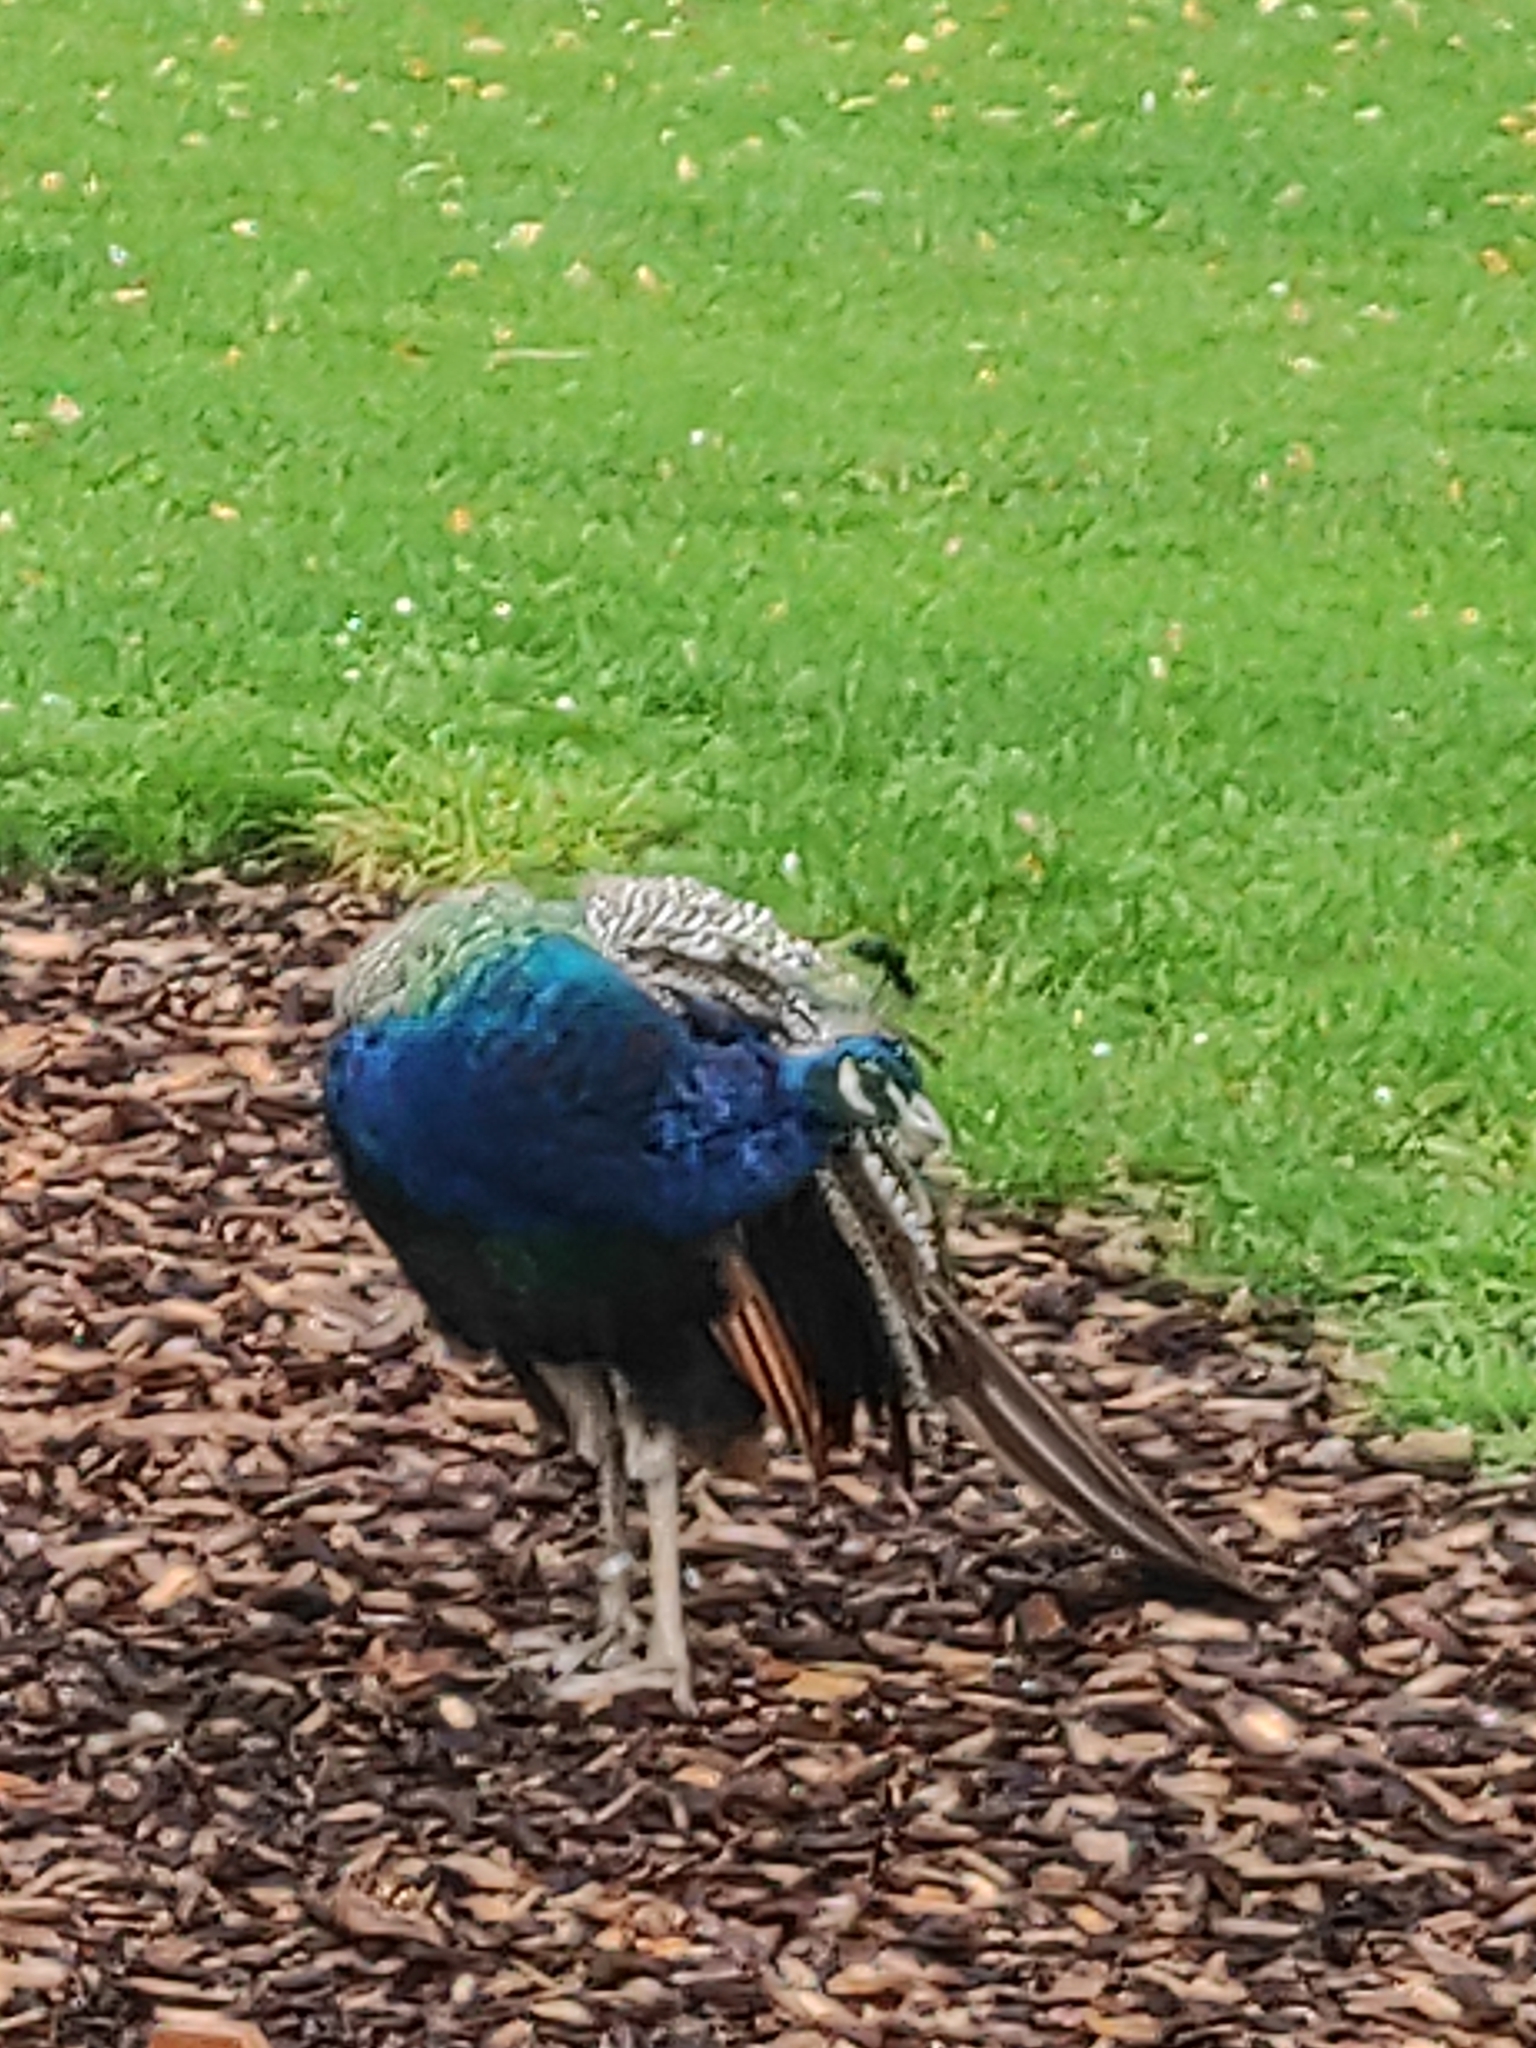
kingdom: Animalia
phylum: Chordata
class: Aves
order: Galliformes
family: Phasianidae
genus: Pavo
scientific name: Pavo cristatus
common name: Indian peafowl
